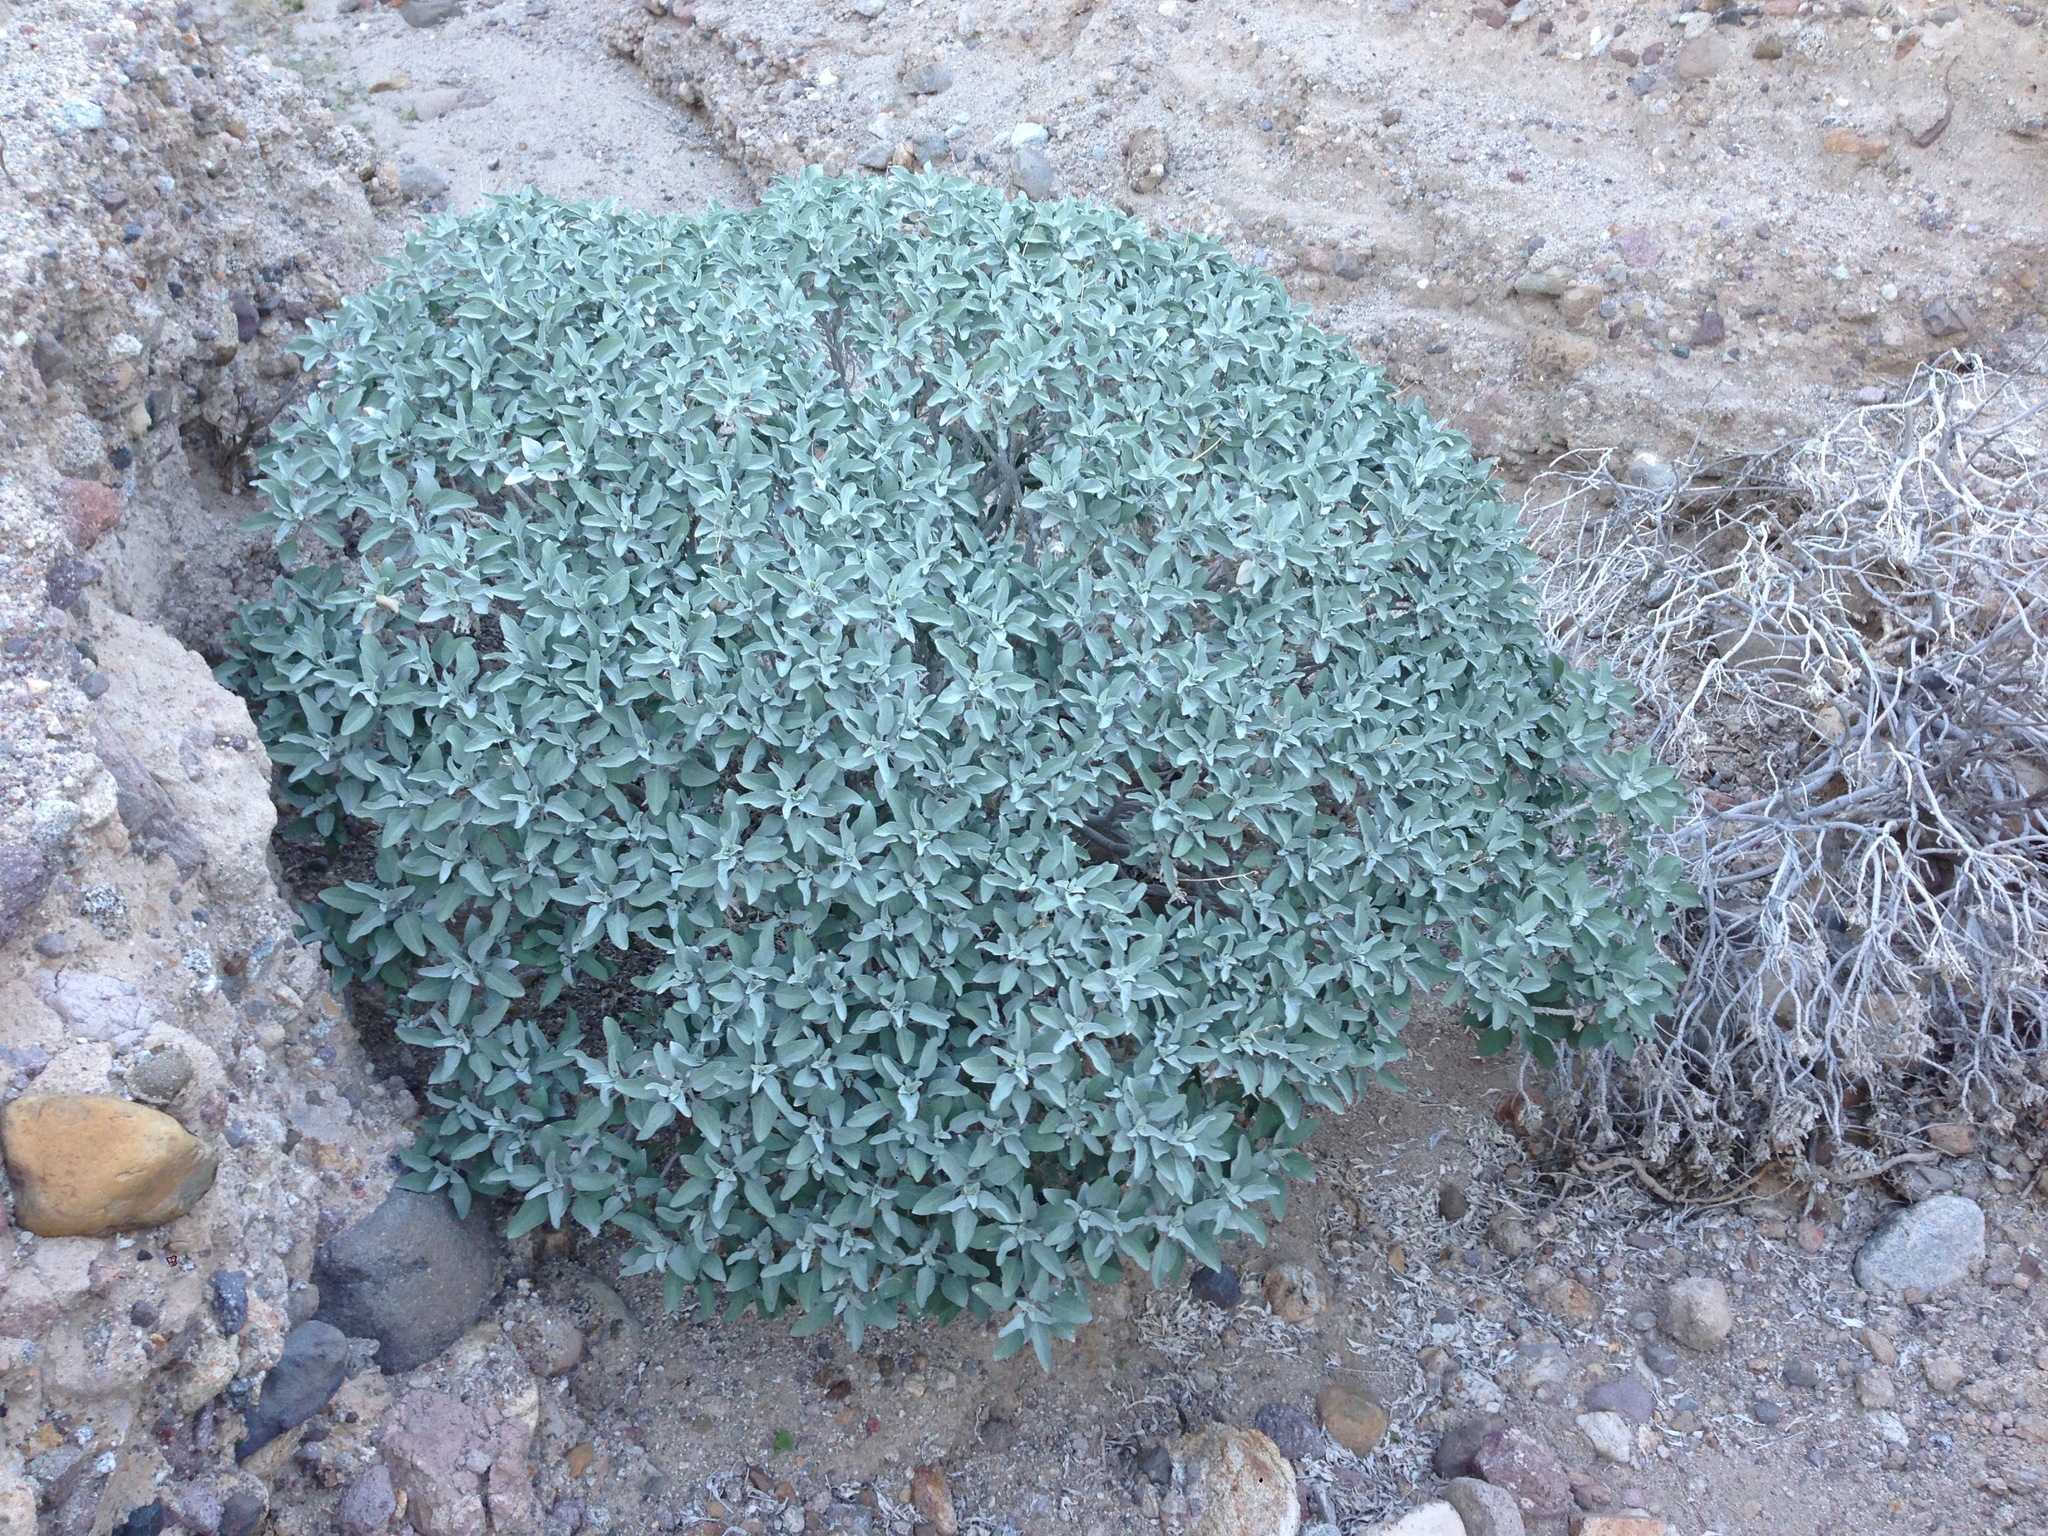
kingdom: Plantae
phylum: Tracheophyta
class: Magnoliopsida
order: Asterales
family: Asteraceae
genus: Encelia
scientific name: Encelia farinosa
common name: Brittlebush
